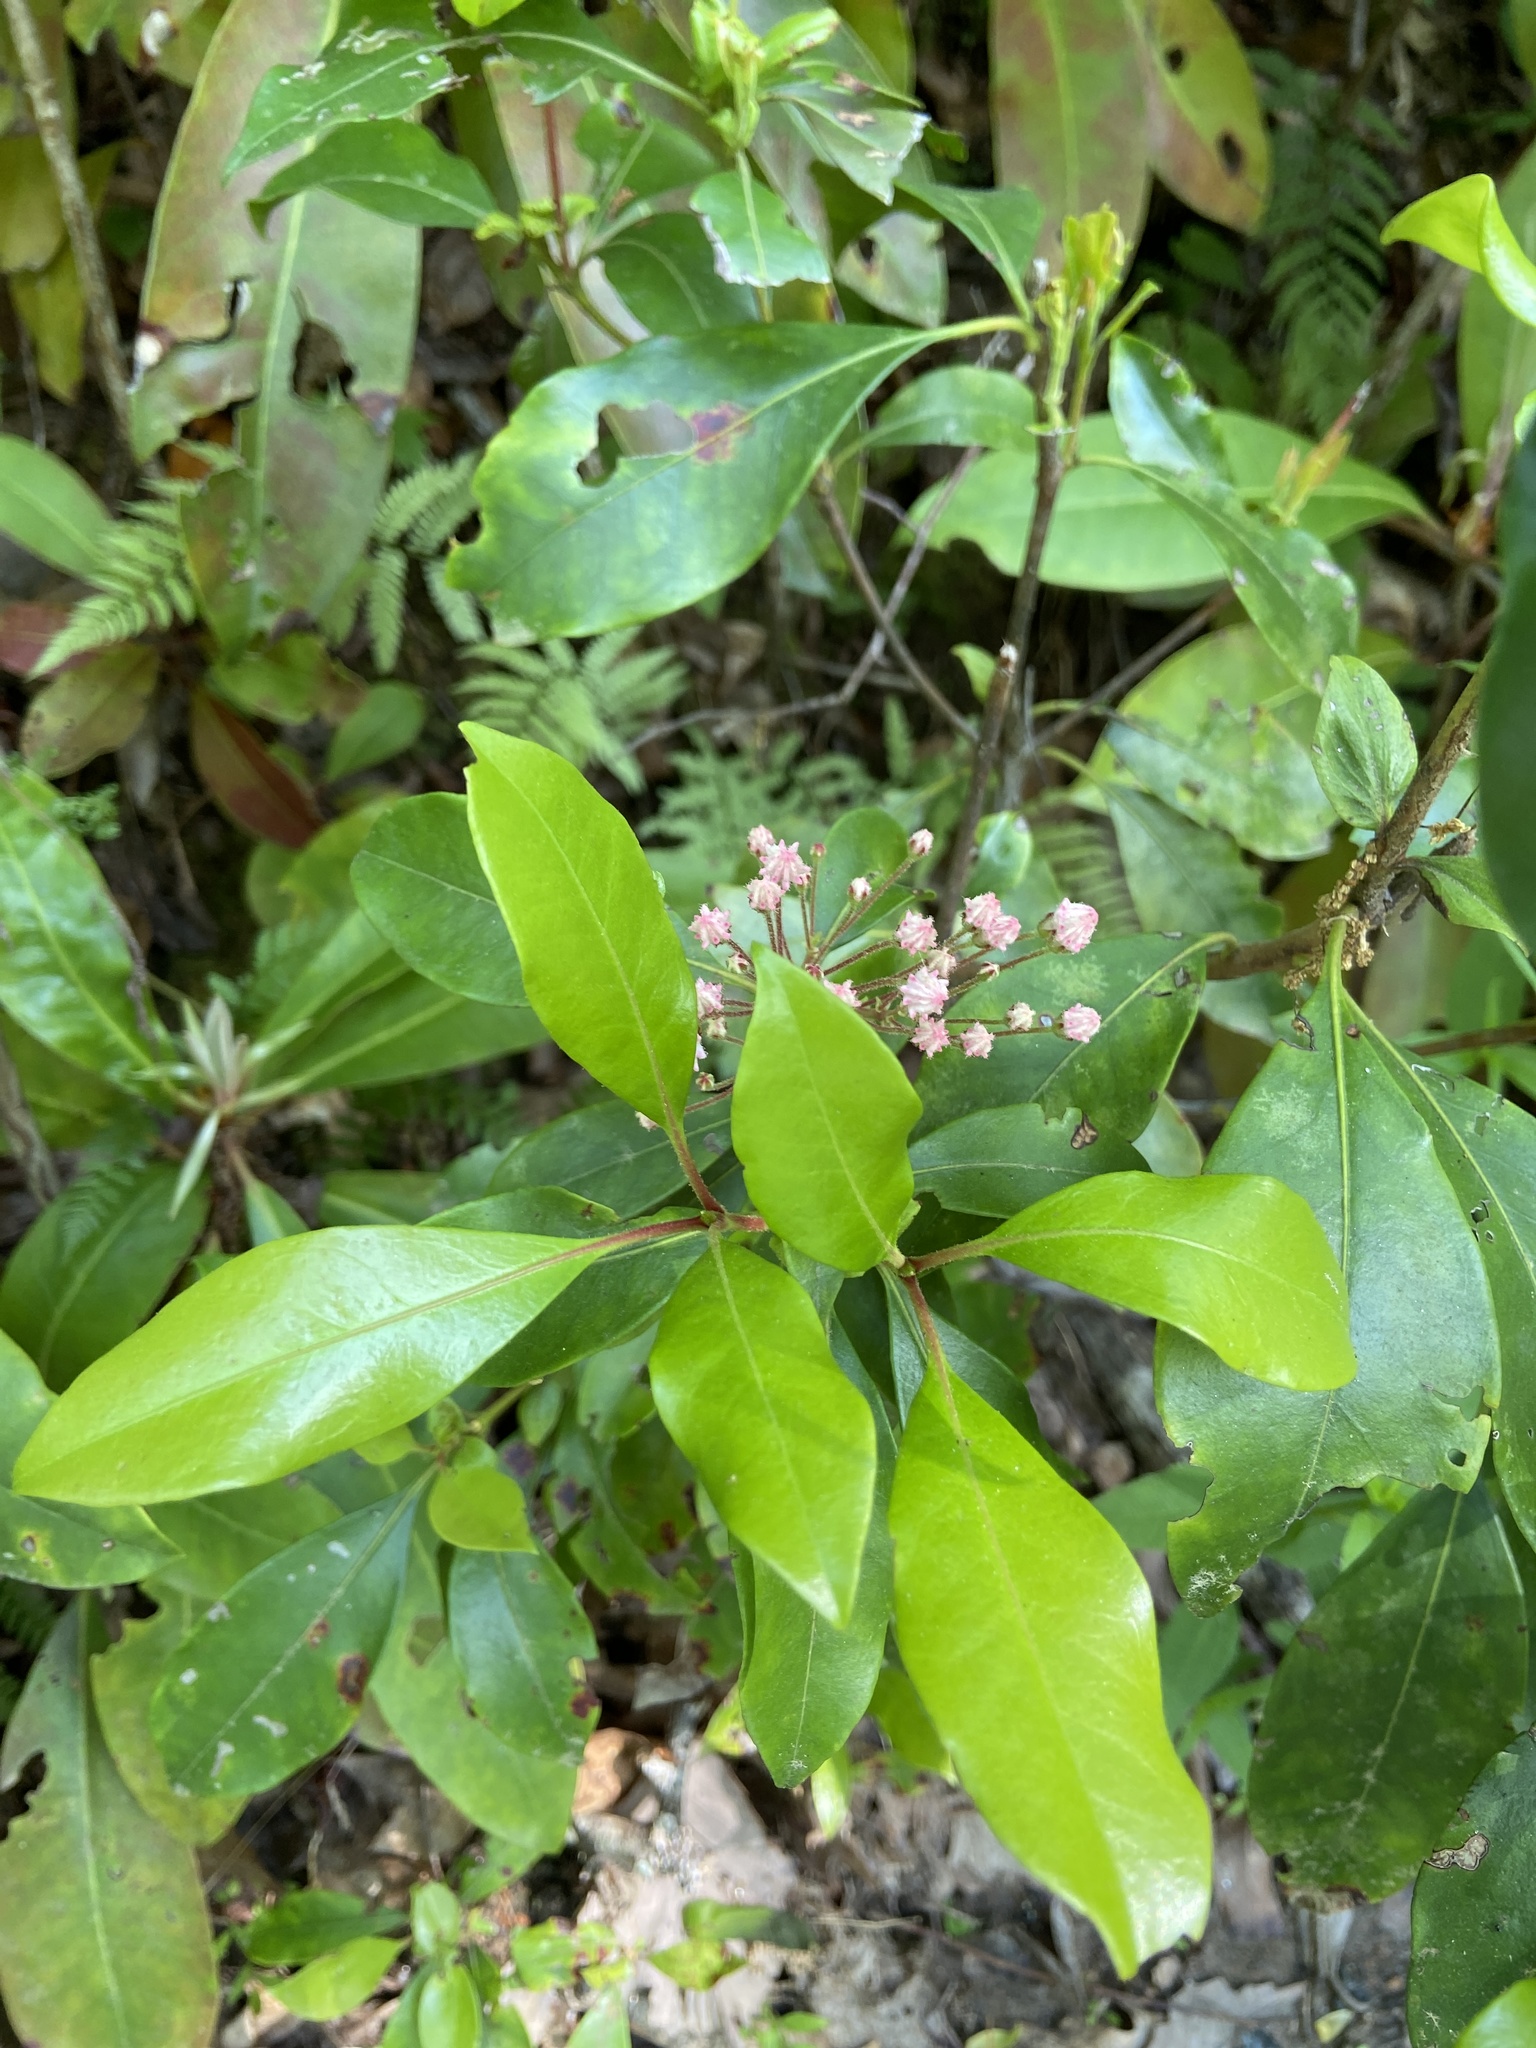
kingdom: Plantae
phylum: Tracheophyta
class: Magnoliopsida
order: Ericales
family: Ericaceae
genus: Kalmia
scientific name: Kalmia latifolia
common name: Mountain-laurel
